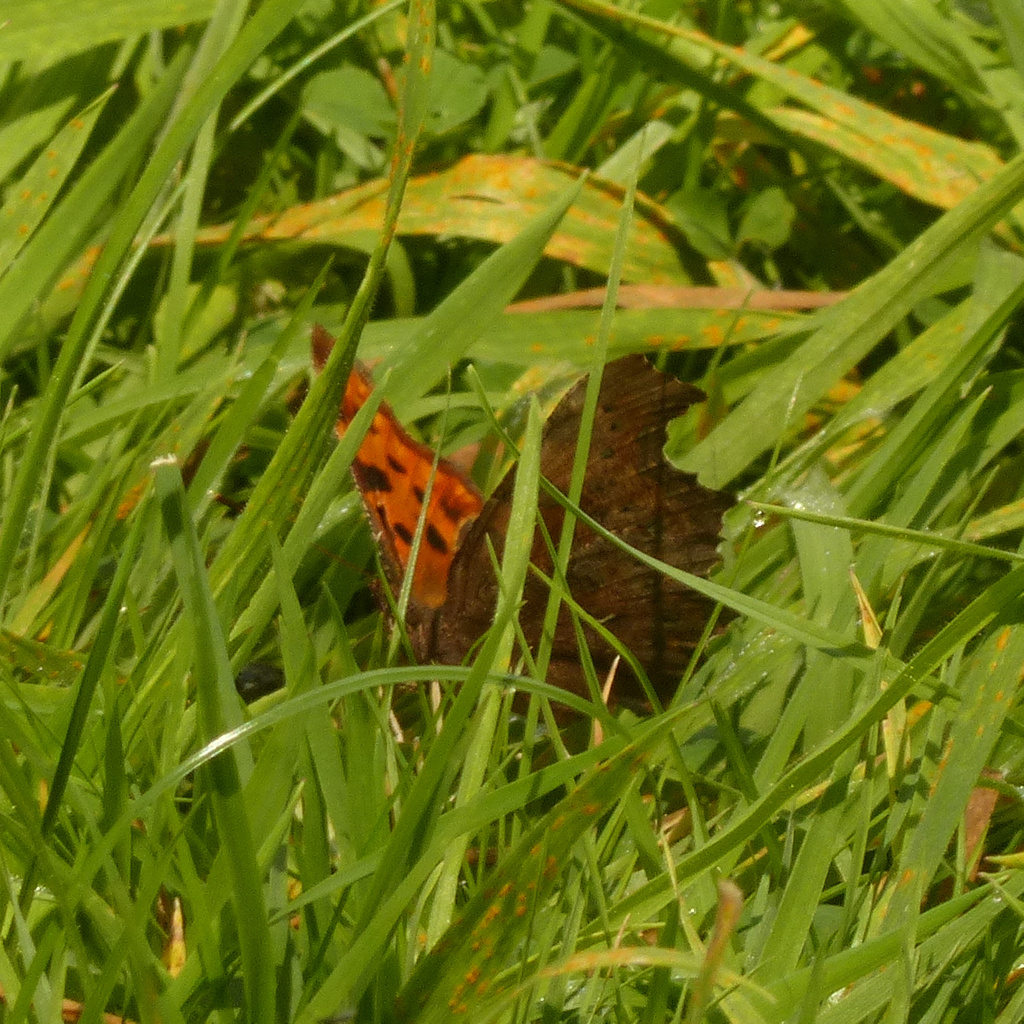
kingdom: Animalia
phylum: Arthropoda
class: Insecta
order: Lepidoptera
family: Nymphalidae
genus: Polygonia
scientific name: Polygonia c-album
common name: Comma
